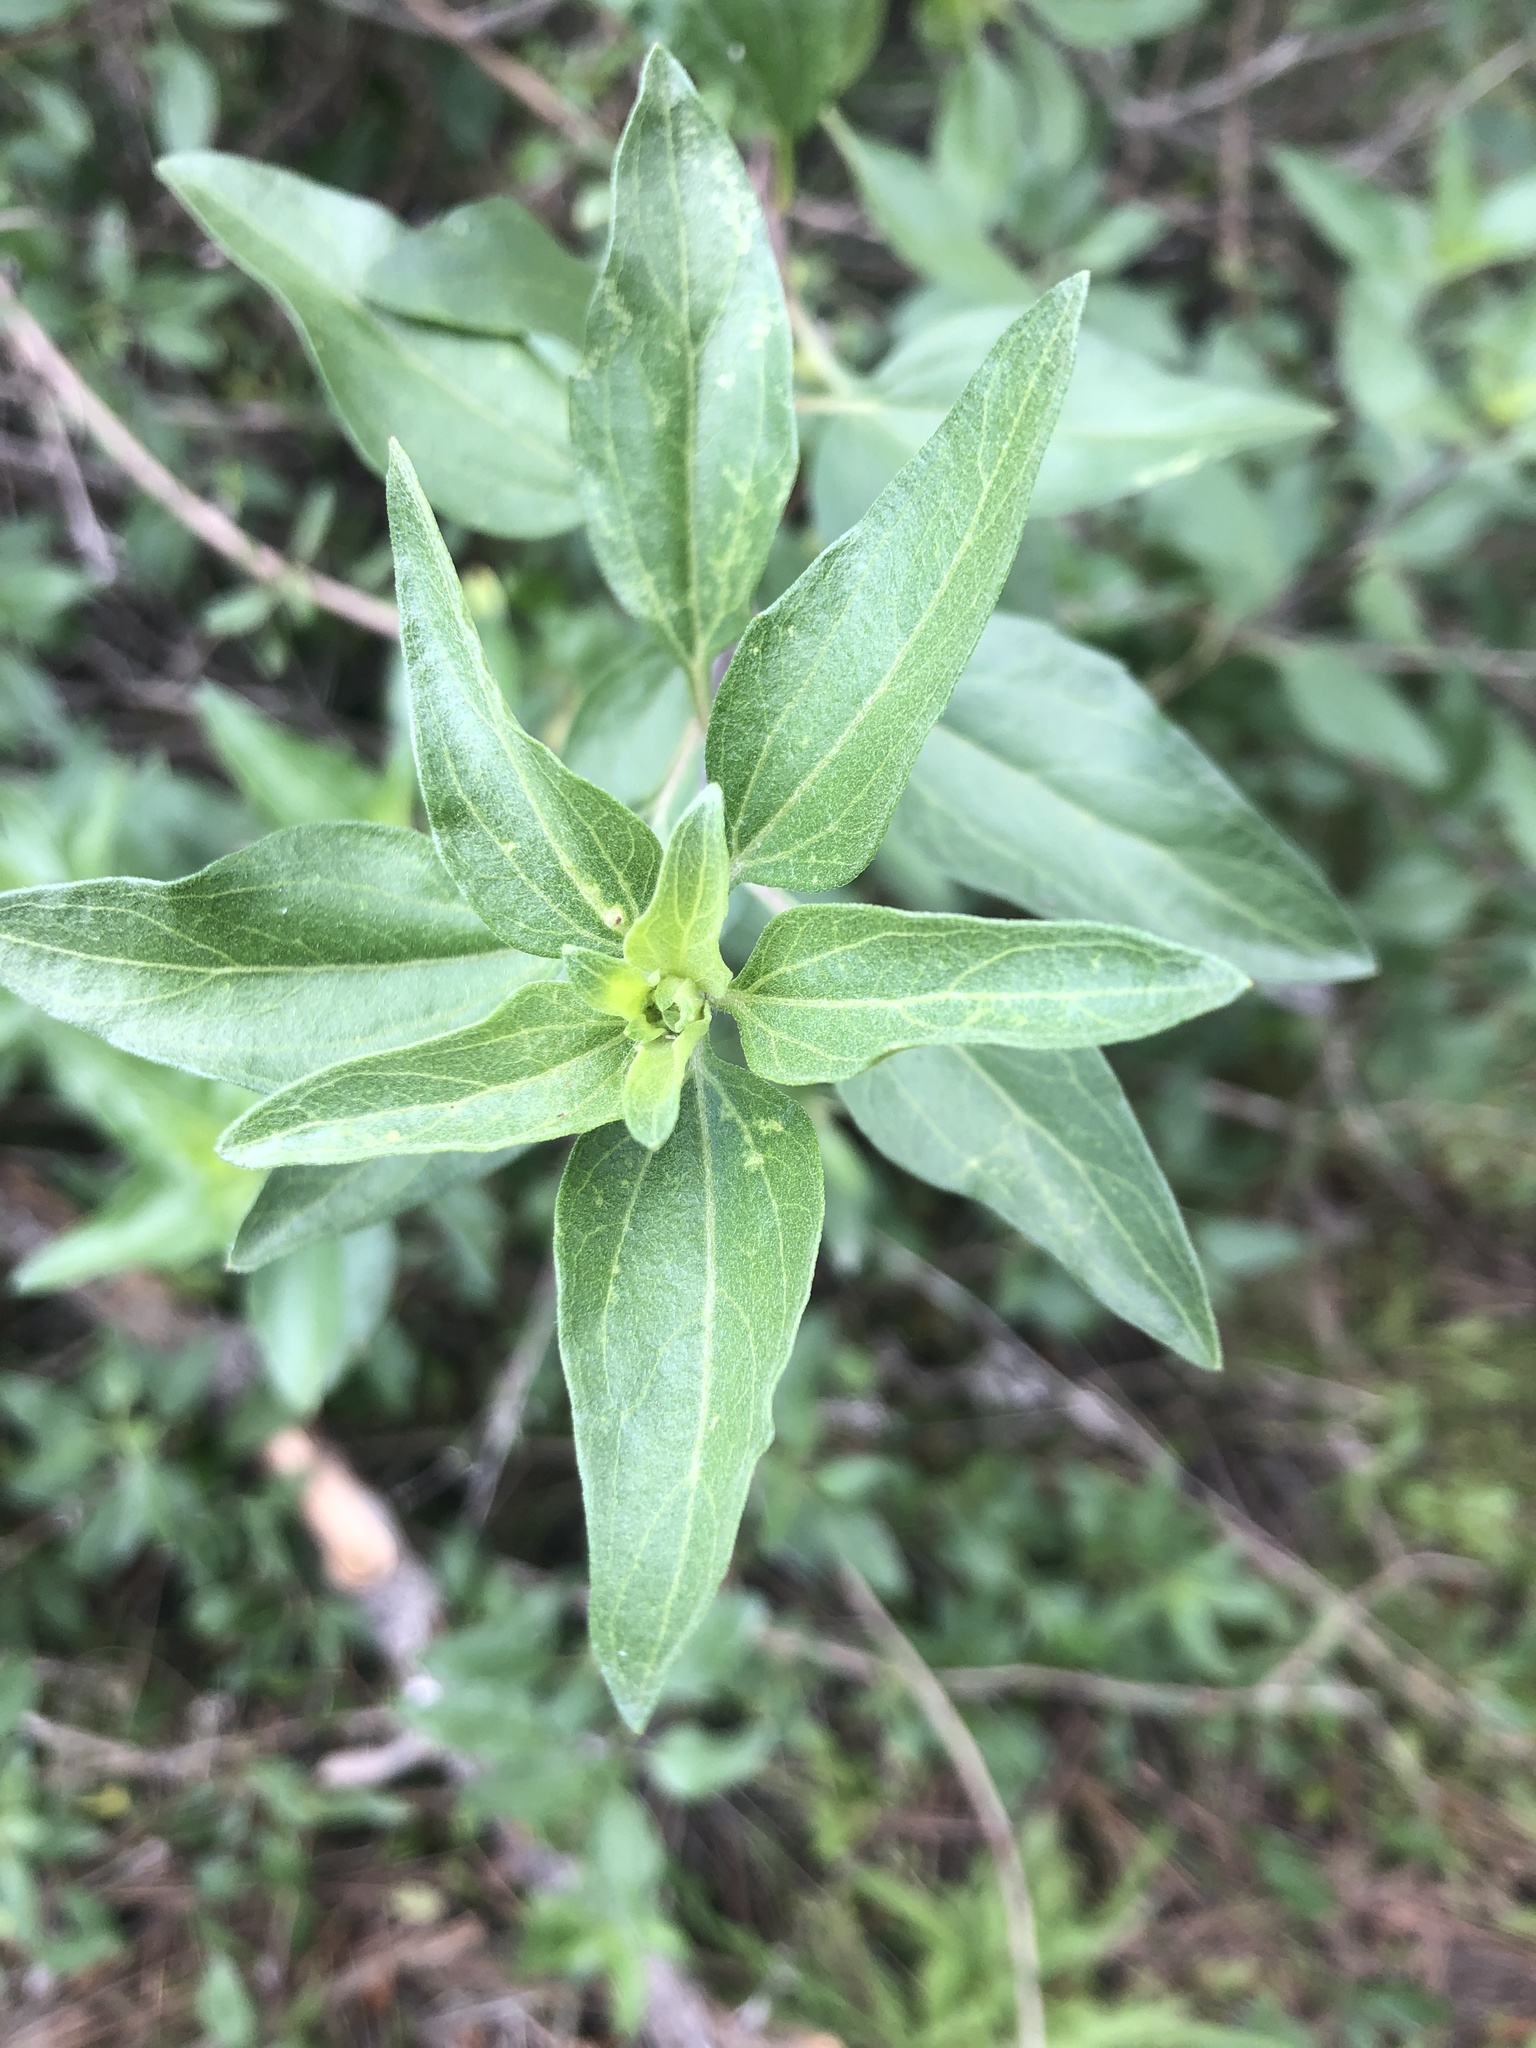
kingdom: Plantae
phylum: Tracheophyta
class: Magnoliopsida
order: Asterales
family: Asteraceae
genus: Encelia
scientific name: Encelia californica
